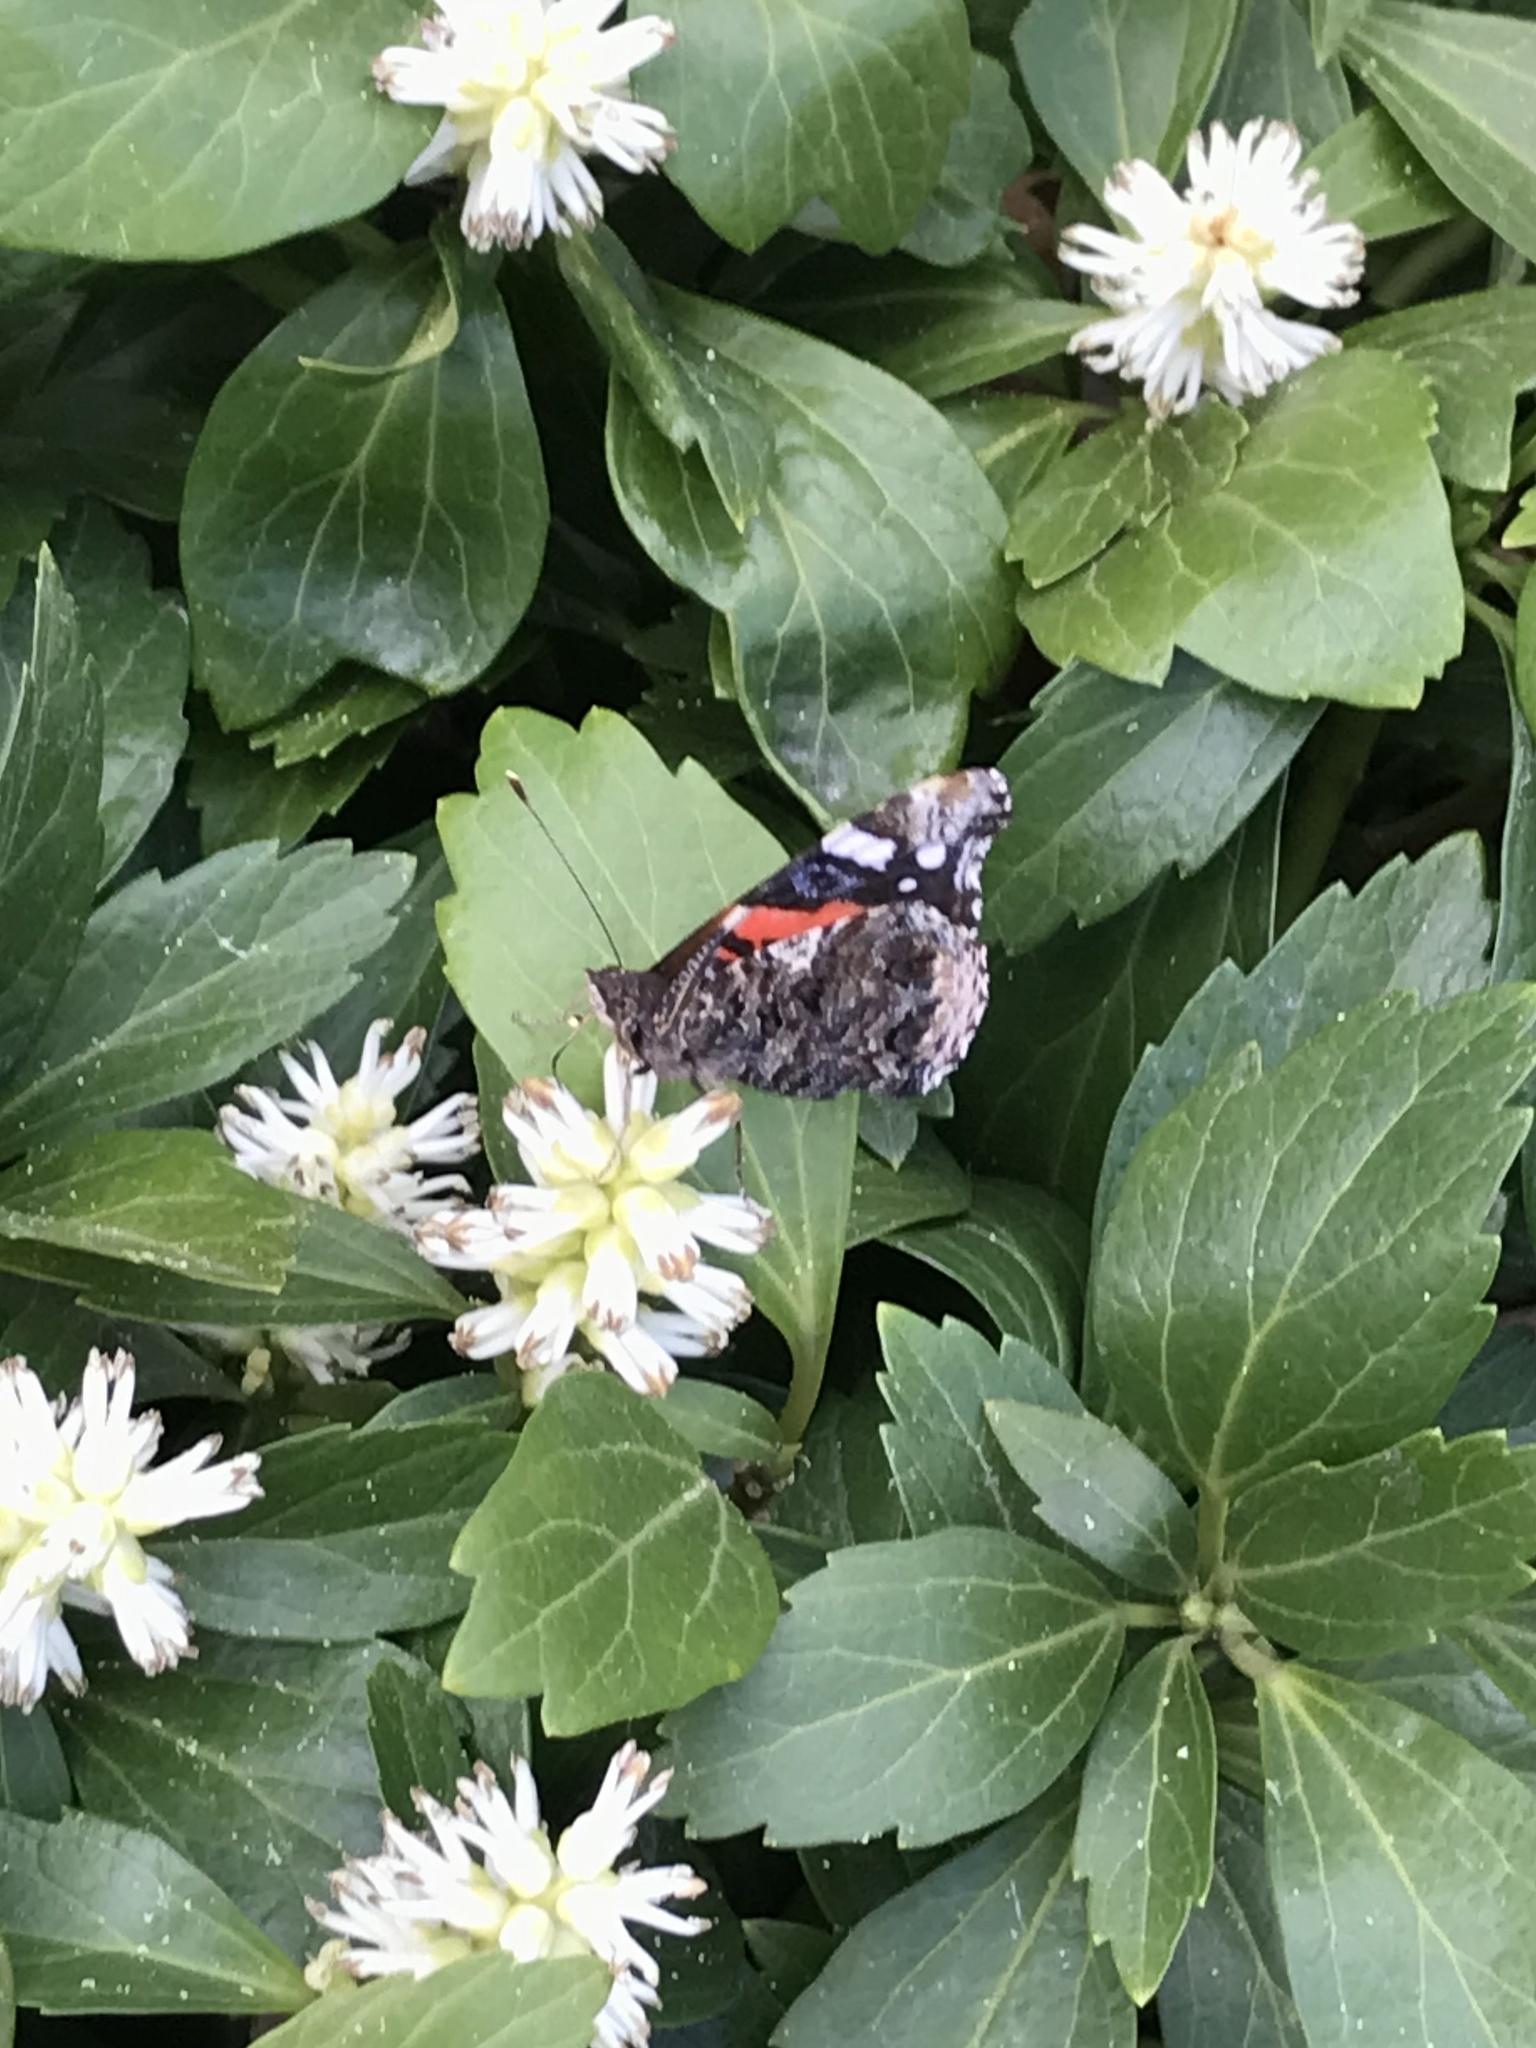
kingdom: Animalia
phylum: Arthropoda
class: Insecta
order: Lepidoptera
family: Nymphalidae
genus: Vanessa
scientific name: Vanessa atalanta
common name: Red admiral
